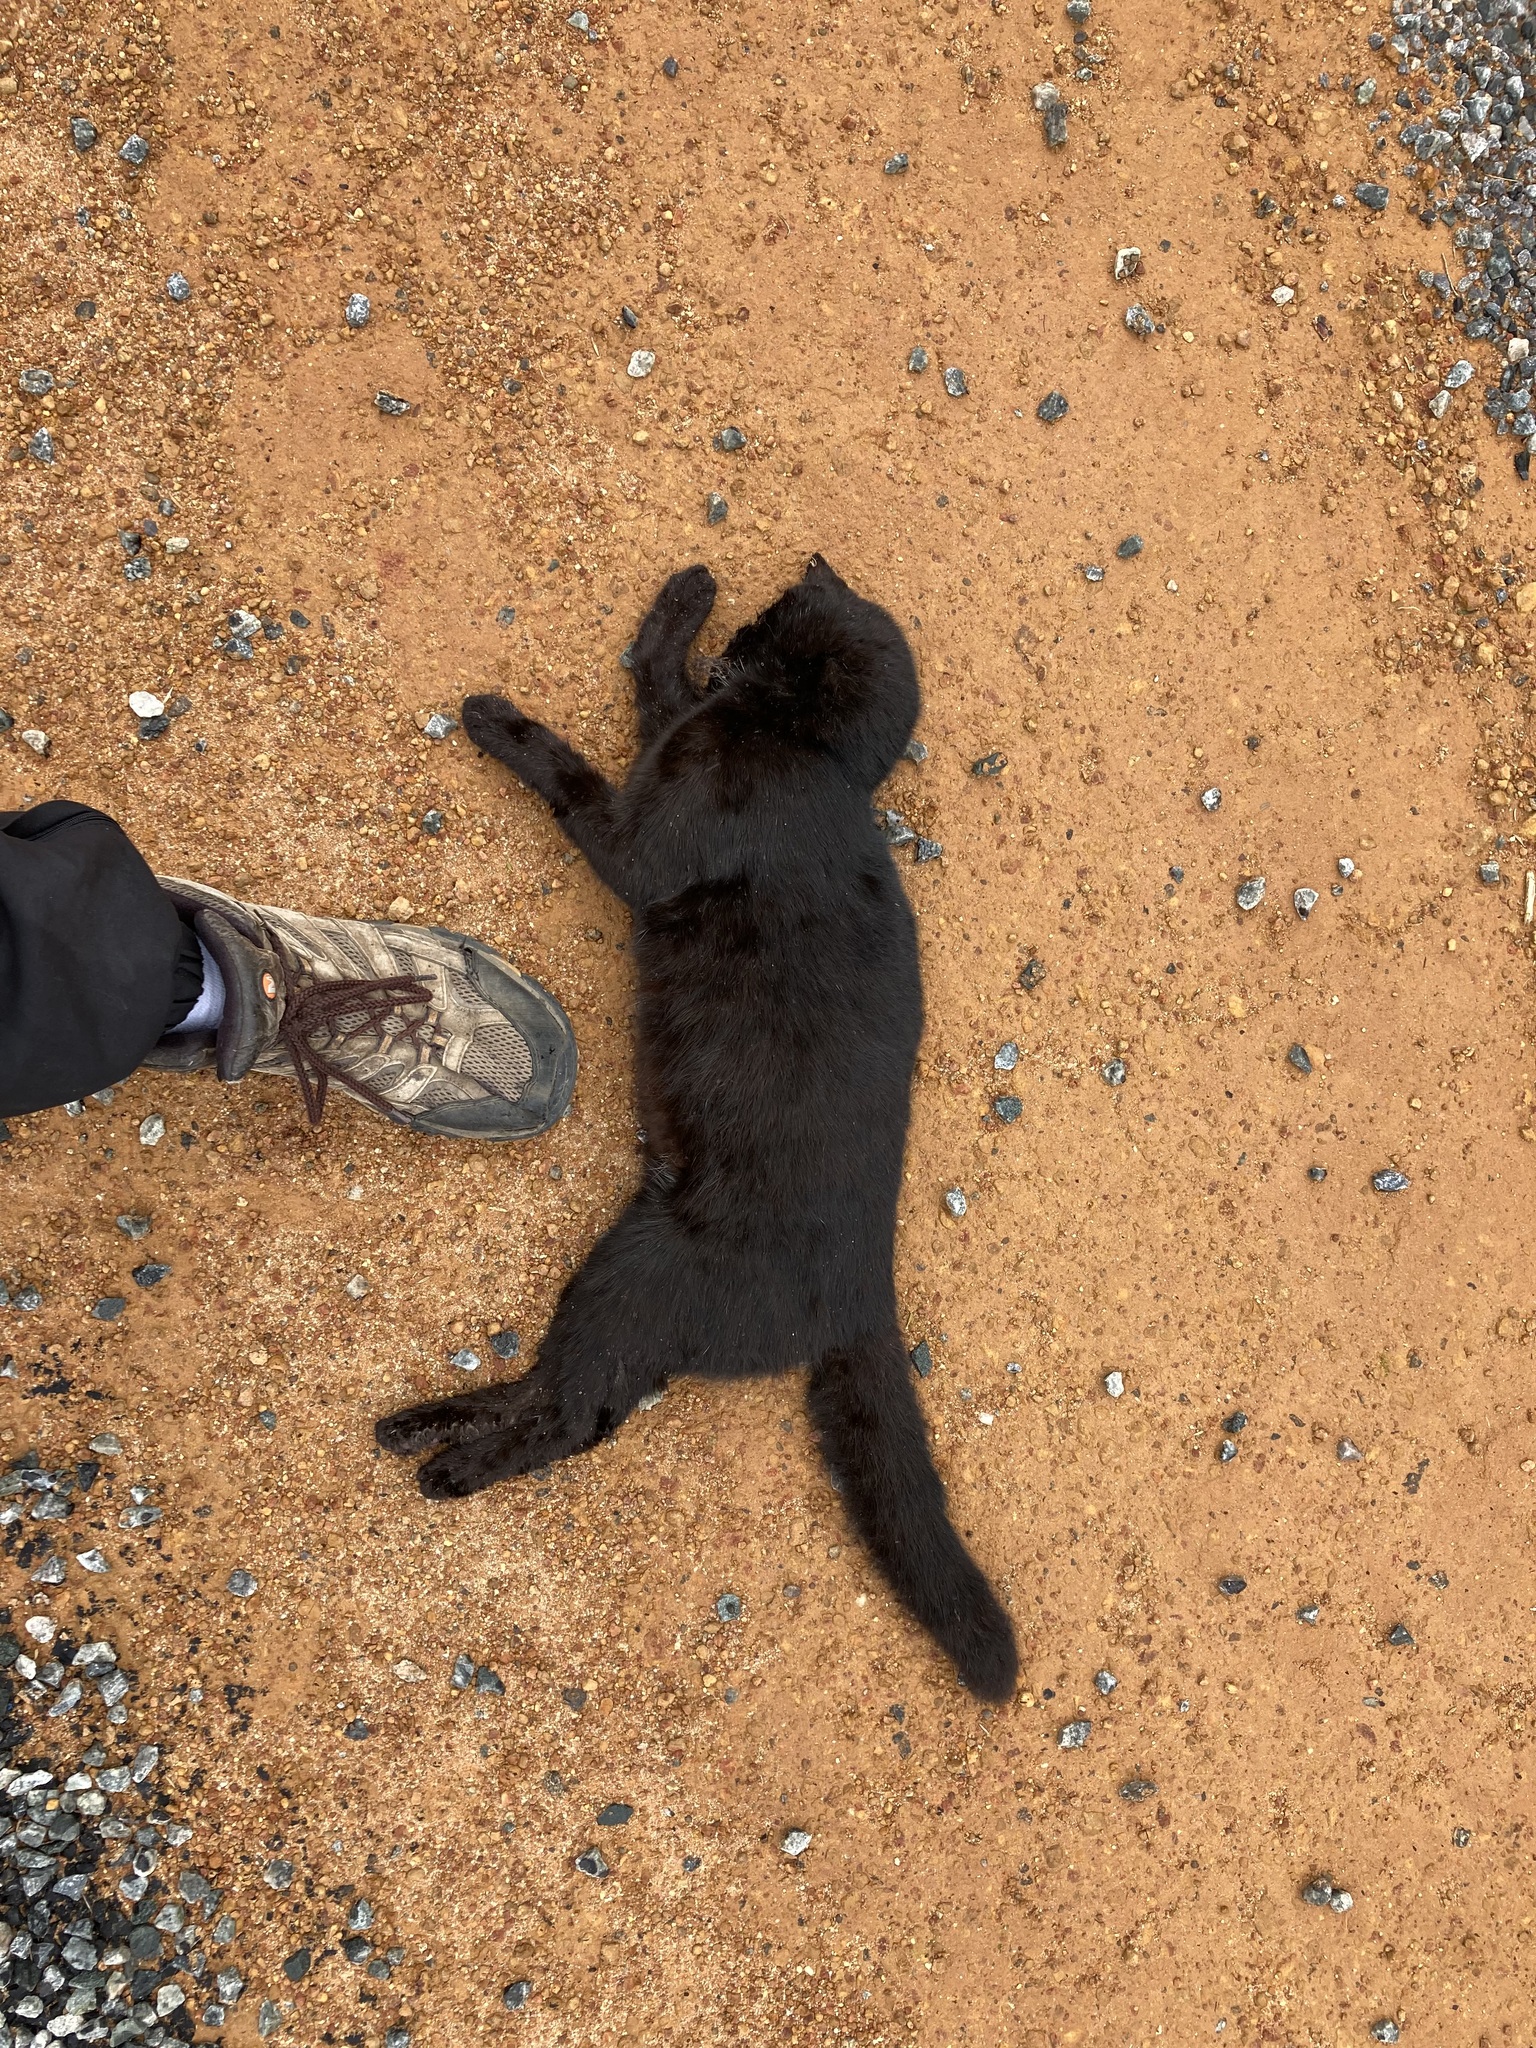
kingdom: Animalia
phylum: Chordata
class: Mammalia
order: Carnivora
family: Felidae
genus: Felis
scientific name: Felis catus
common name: Domestic cat
